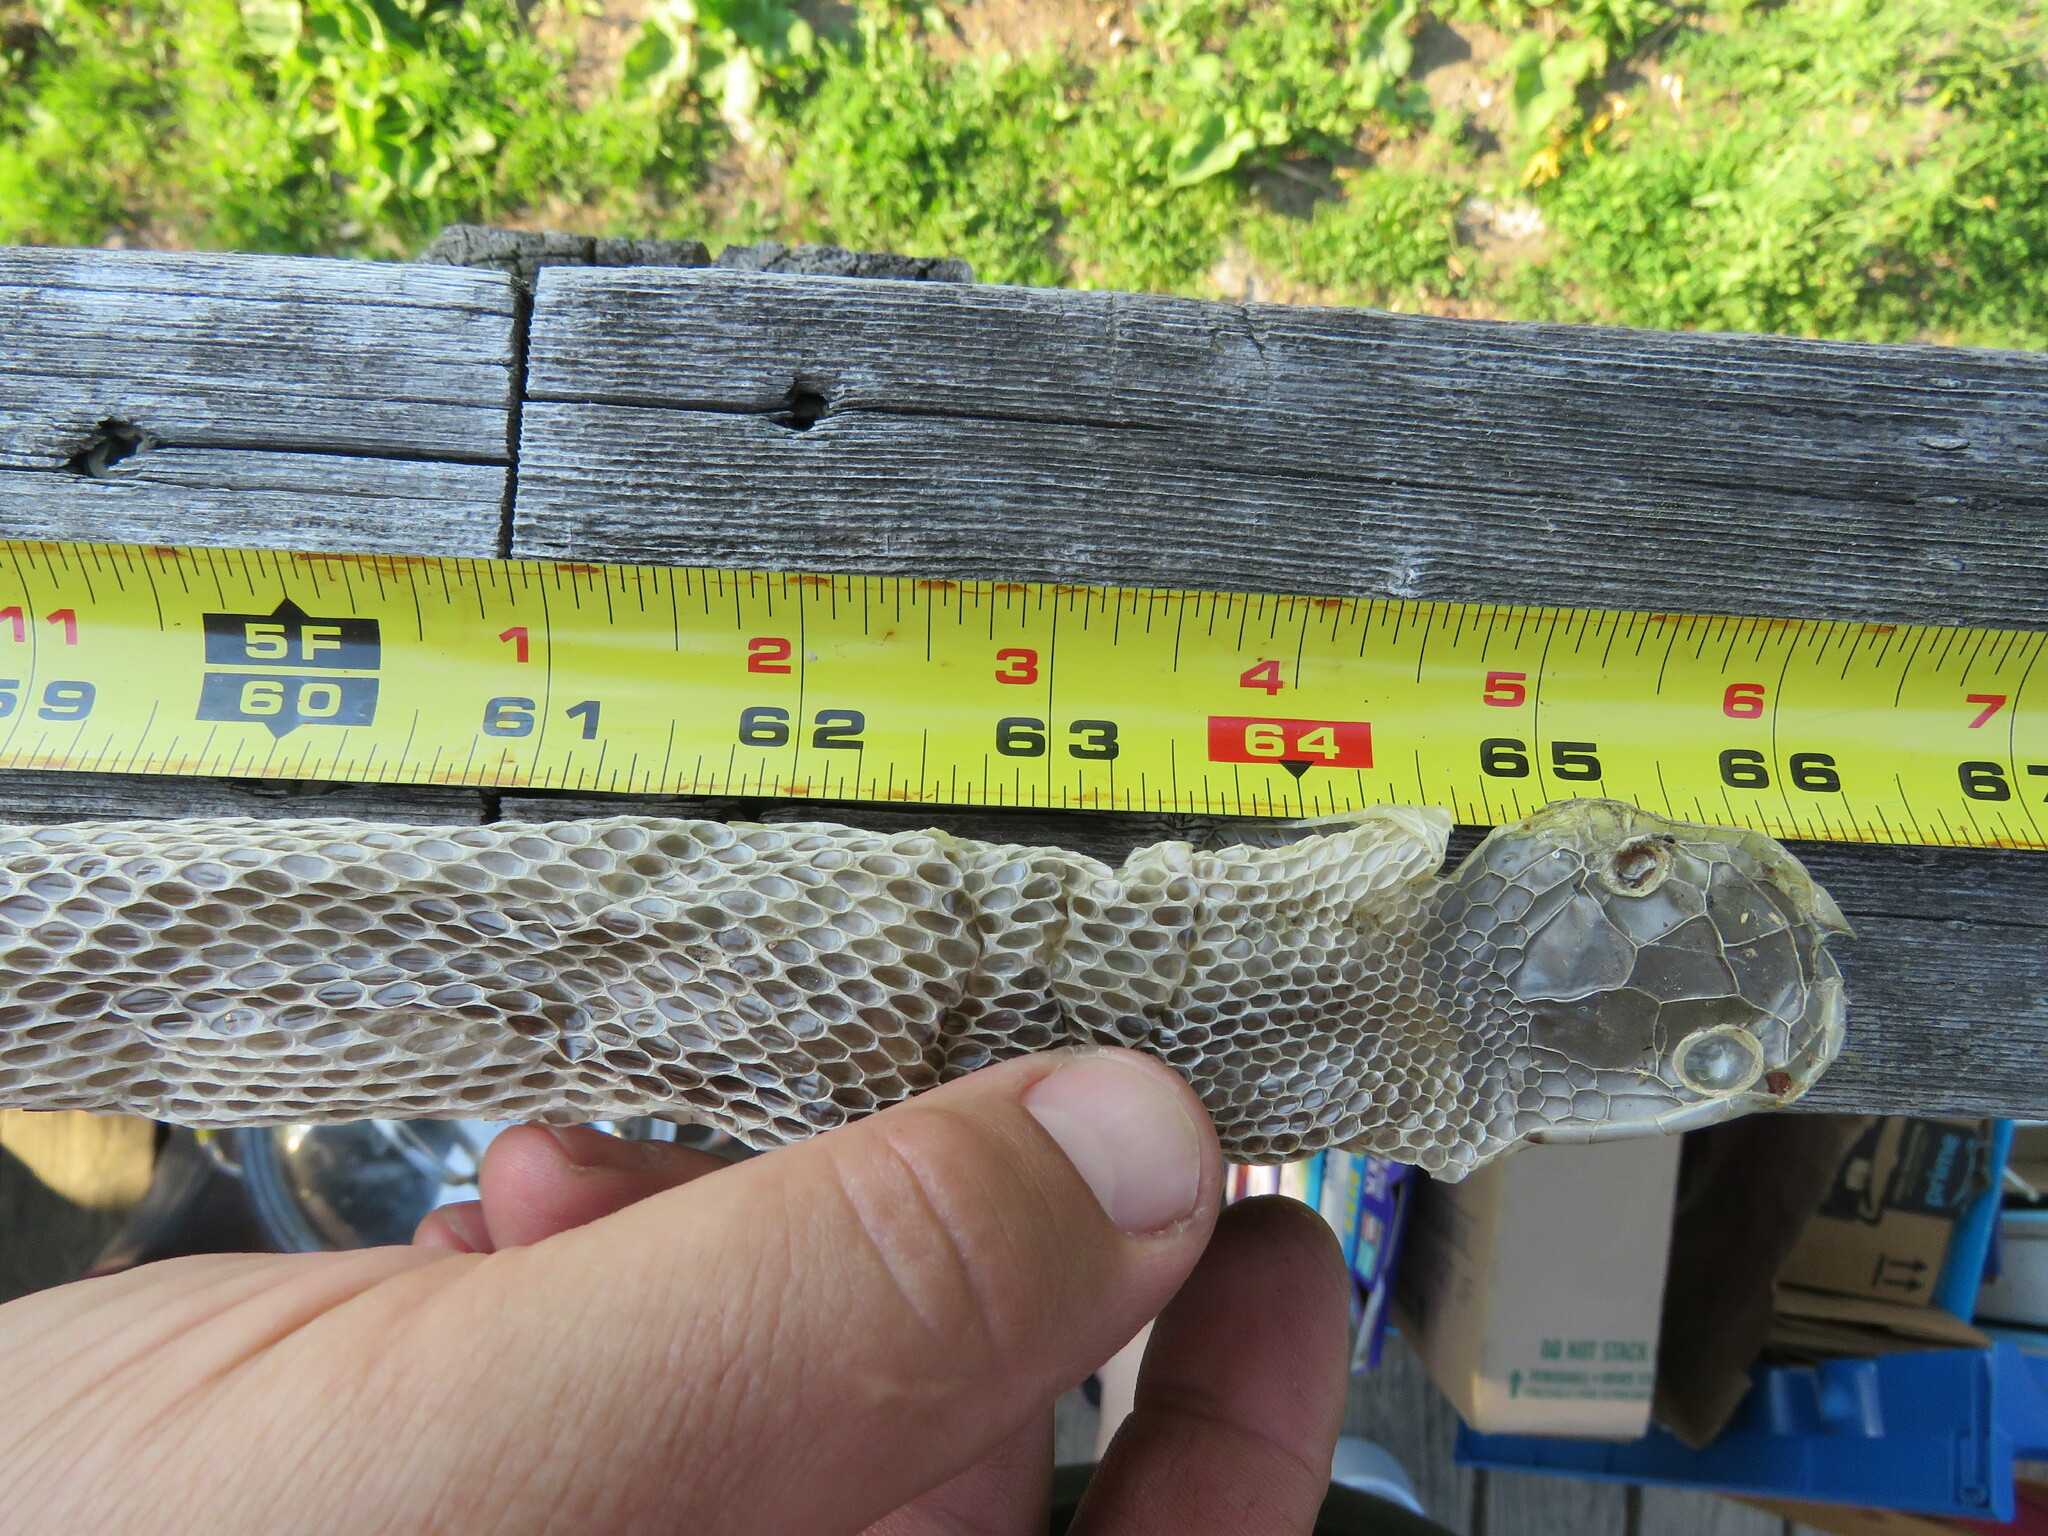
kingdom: Animalia
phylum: Chordata
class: Squamata
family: Colubridae
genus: Pantherophis
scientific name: Pantherophis alleghaniensis
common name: Eastern rat snake
